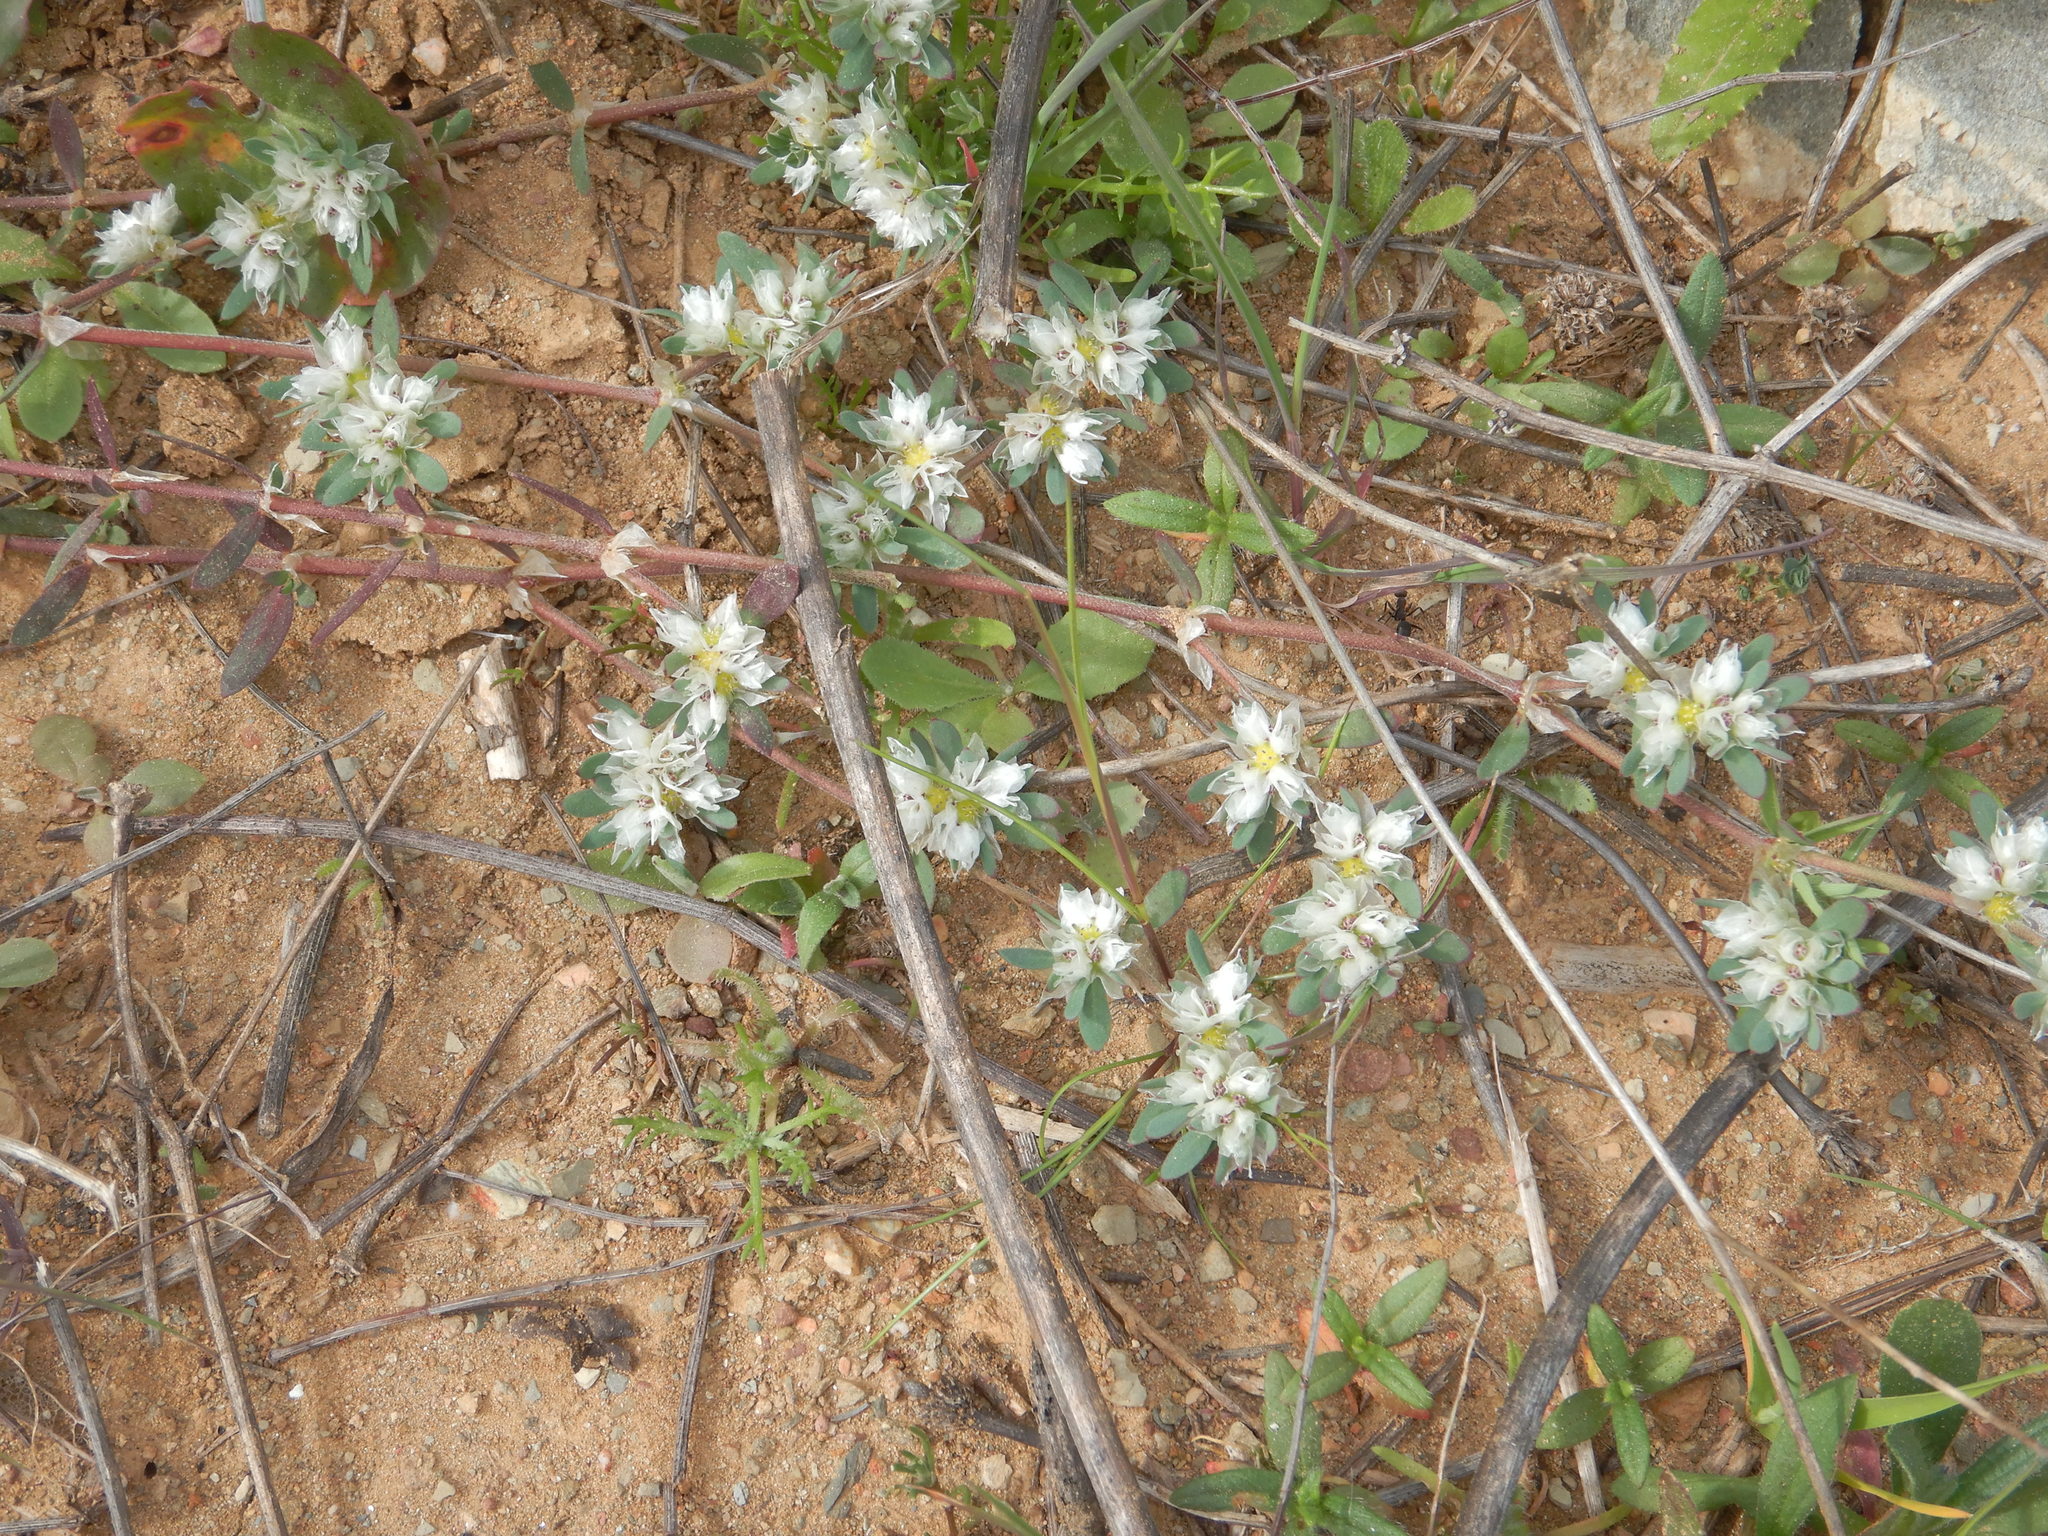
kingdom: Plantae
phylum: Tracheophyta
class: Magnoliopsida
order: Caryophyllales
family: Caryophyllaceae
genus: Paronychia
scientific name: Paronychia argentea
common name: Silver nailroot
